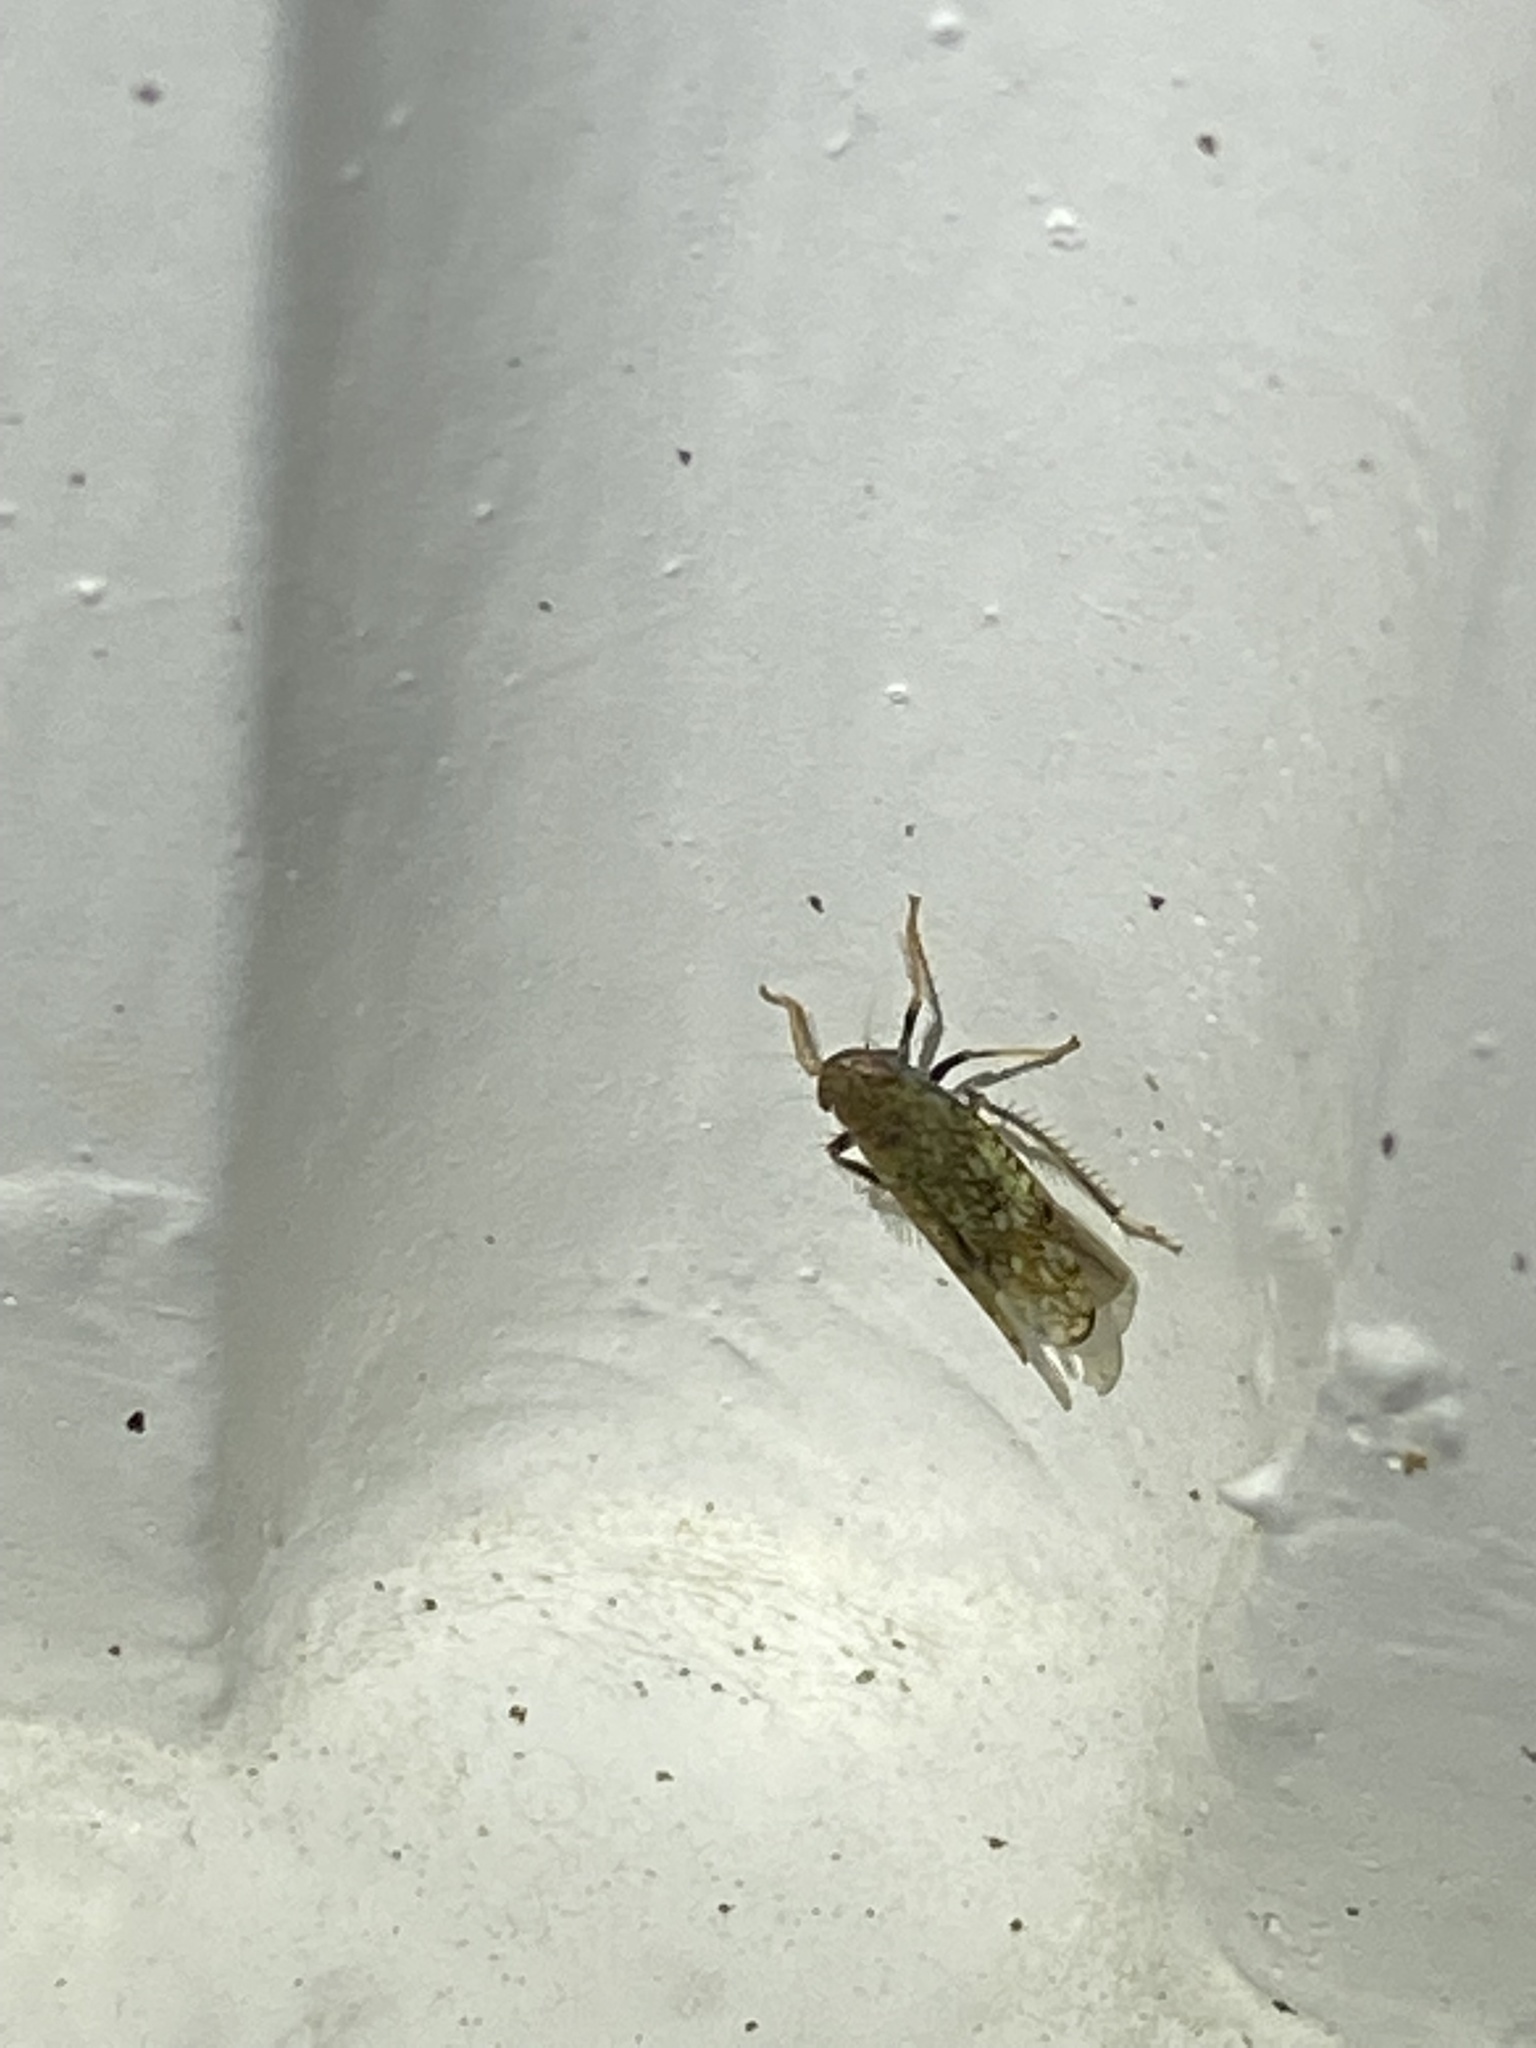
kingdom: Animalia
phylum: Arthropoda
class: Insecta
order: Hemiptera
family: Cicadellidae
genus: Orientus
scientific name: Orientus ishidae
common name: Japanese leafhopper
